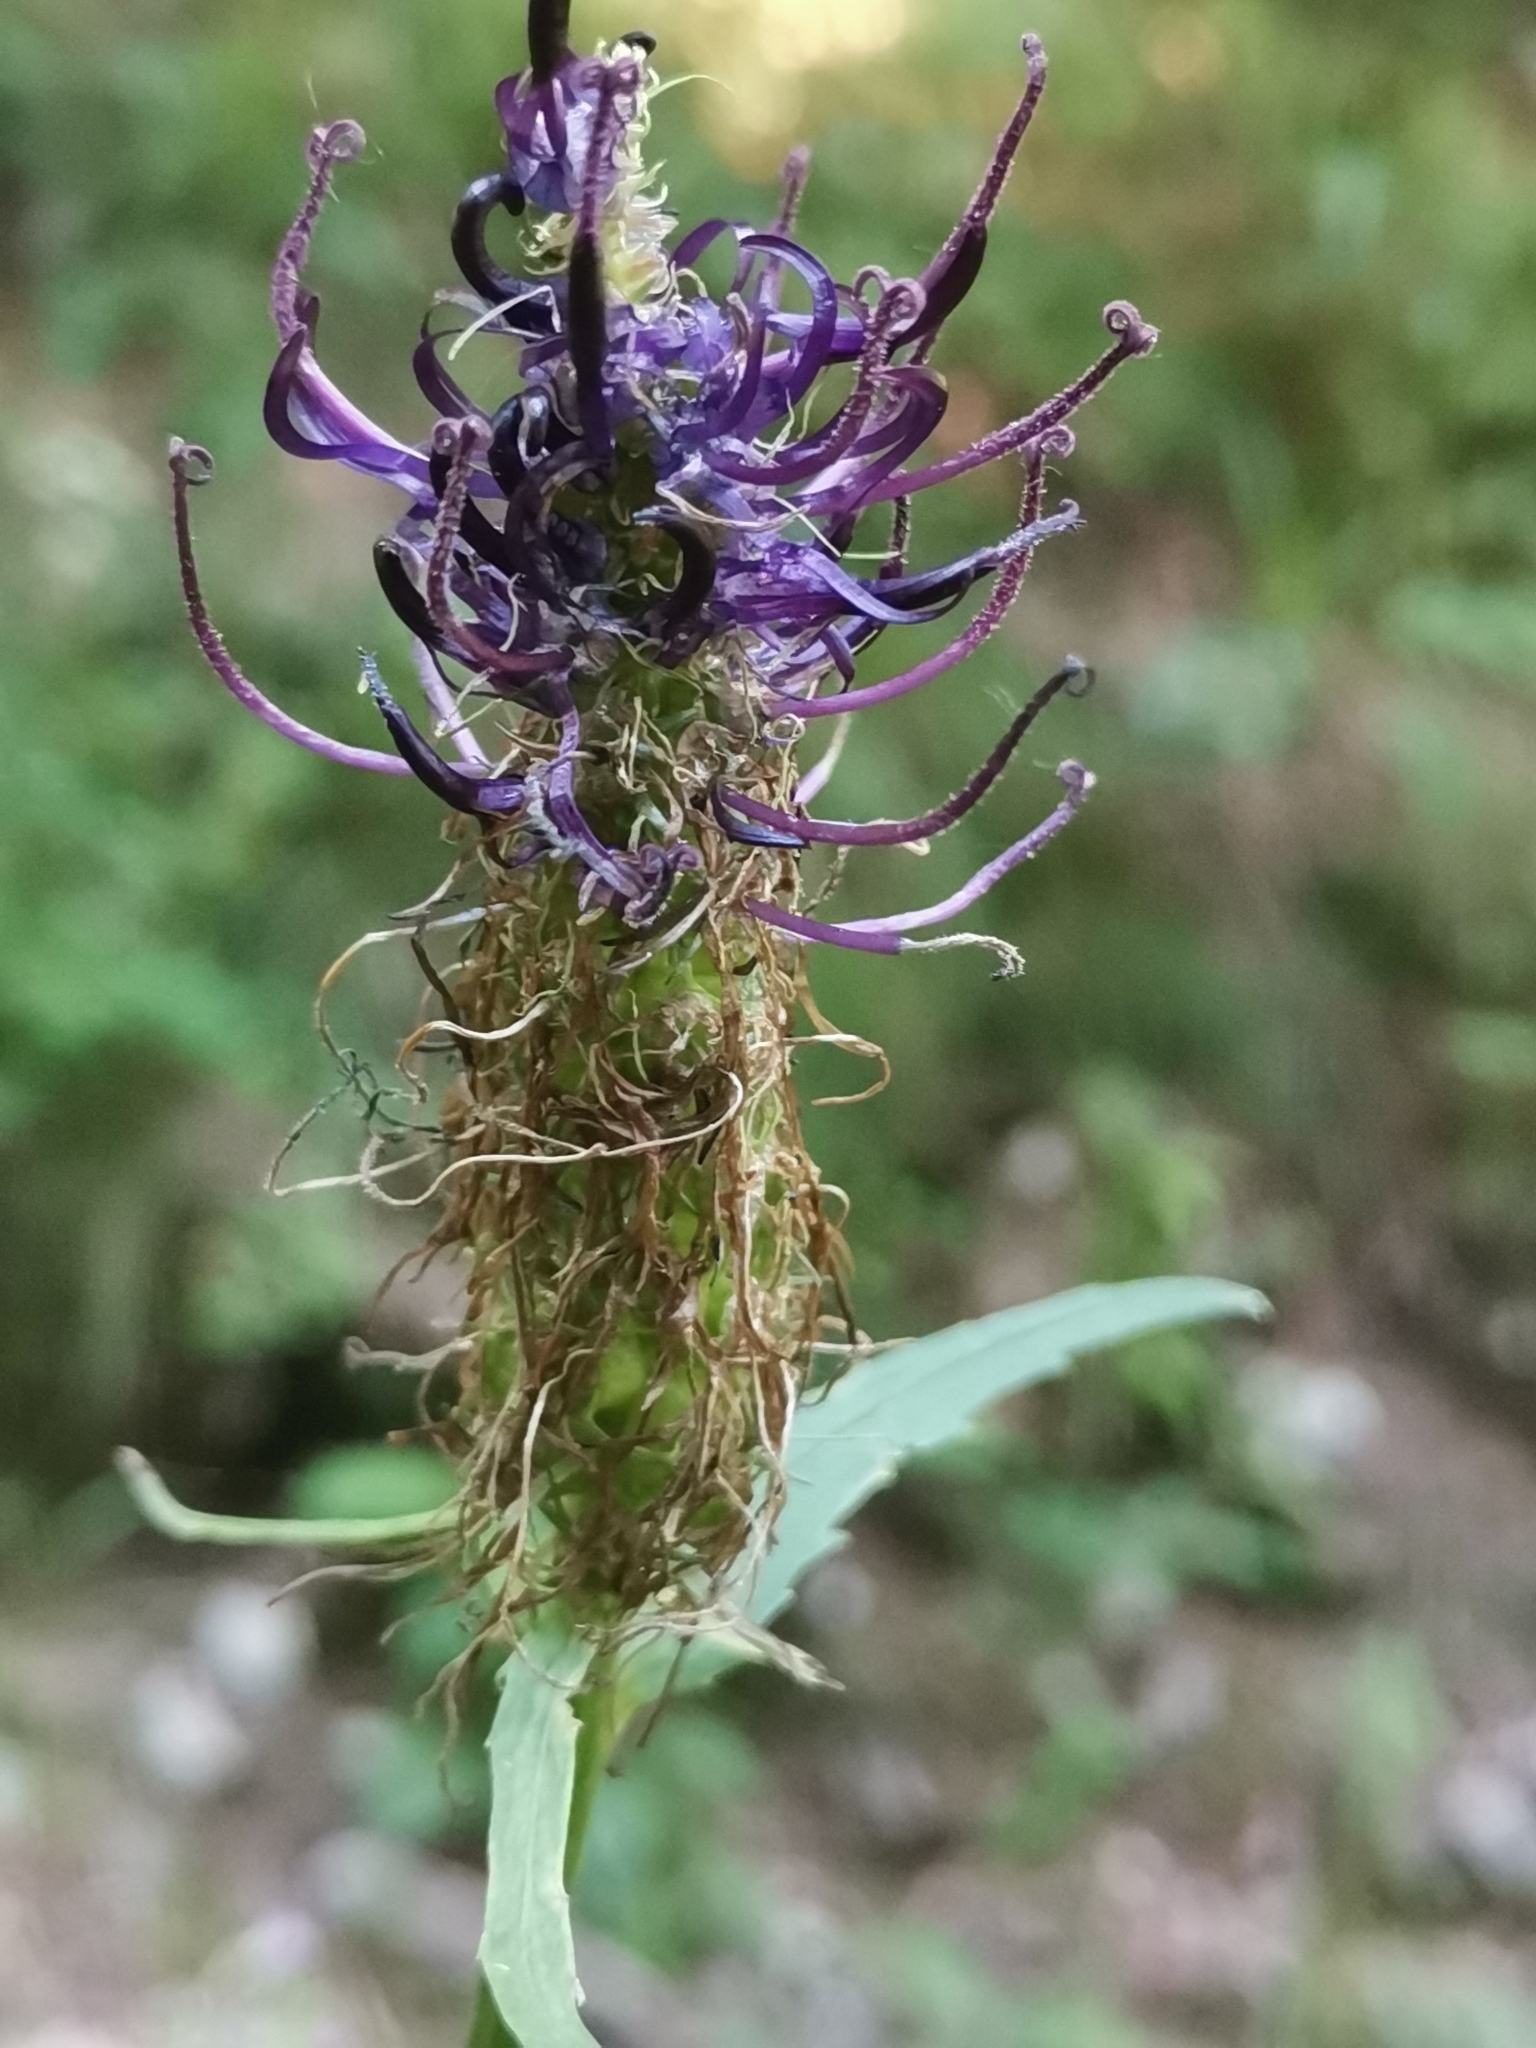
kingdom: Plantae
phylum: Tracheophyta
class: Magnoliopsida
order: Asterales
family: Campanulaceae
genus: Phyteuma
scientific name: Phyteuma ovatum
